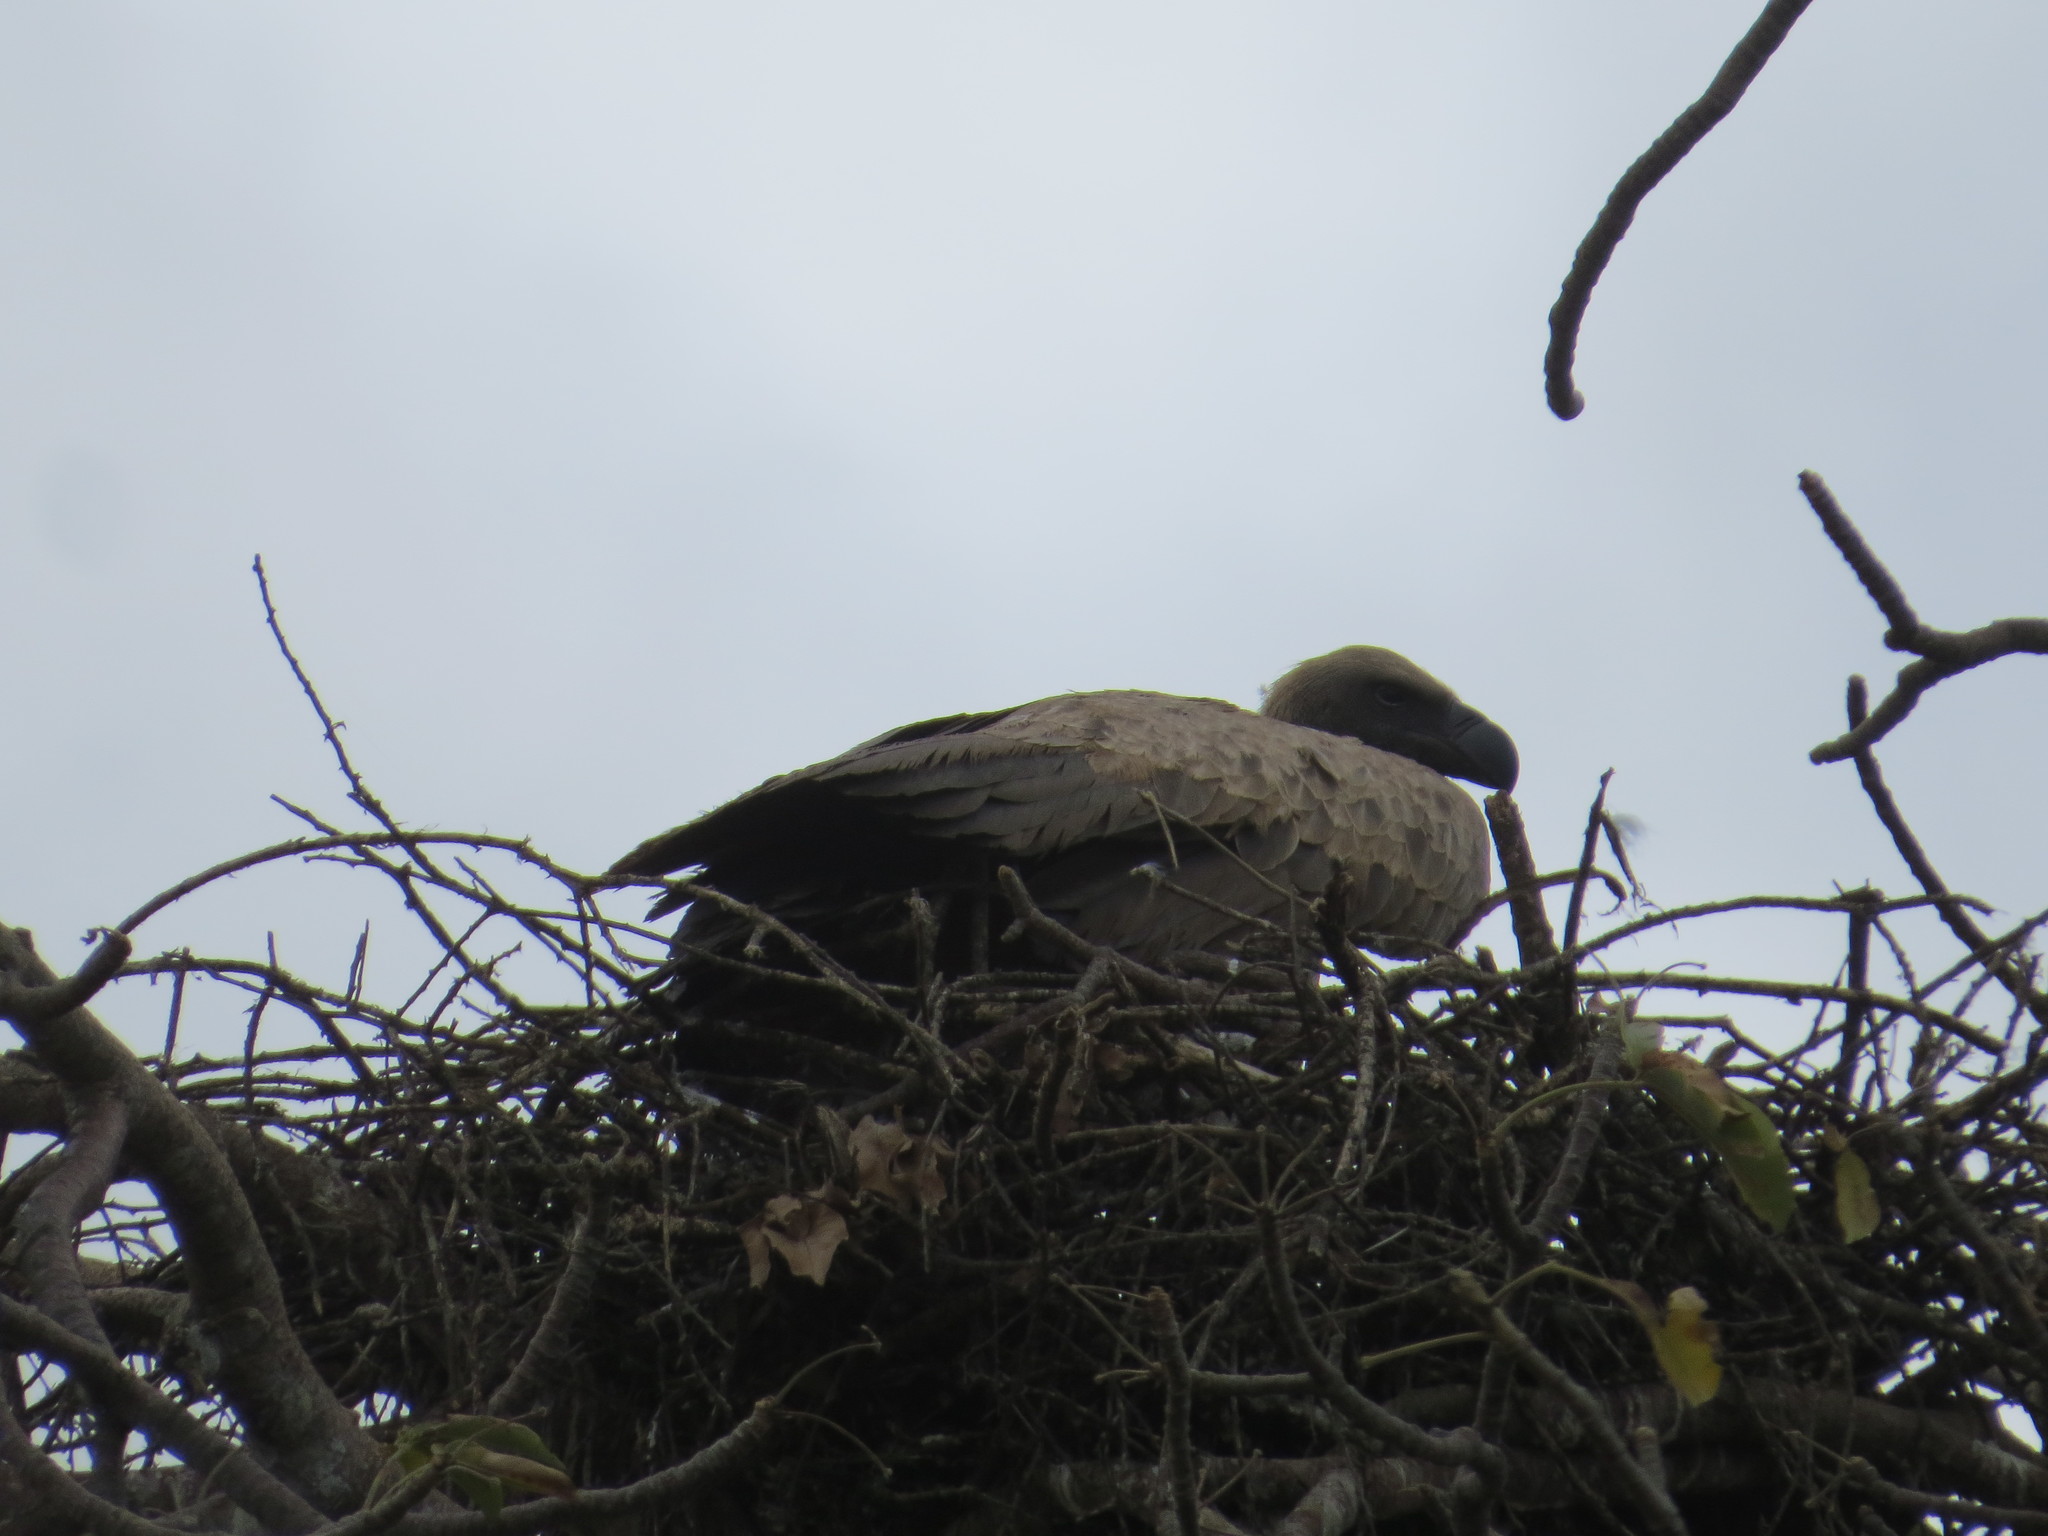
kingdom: Animalia
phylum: Chordata
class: Aves
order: Accipitriformes
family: Accipitridae
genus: Gyps
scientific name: Gyps africanus
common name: White-backed vulture
